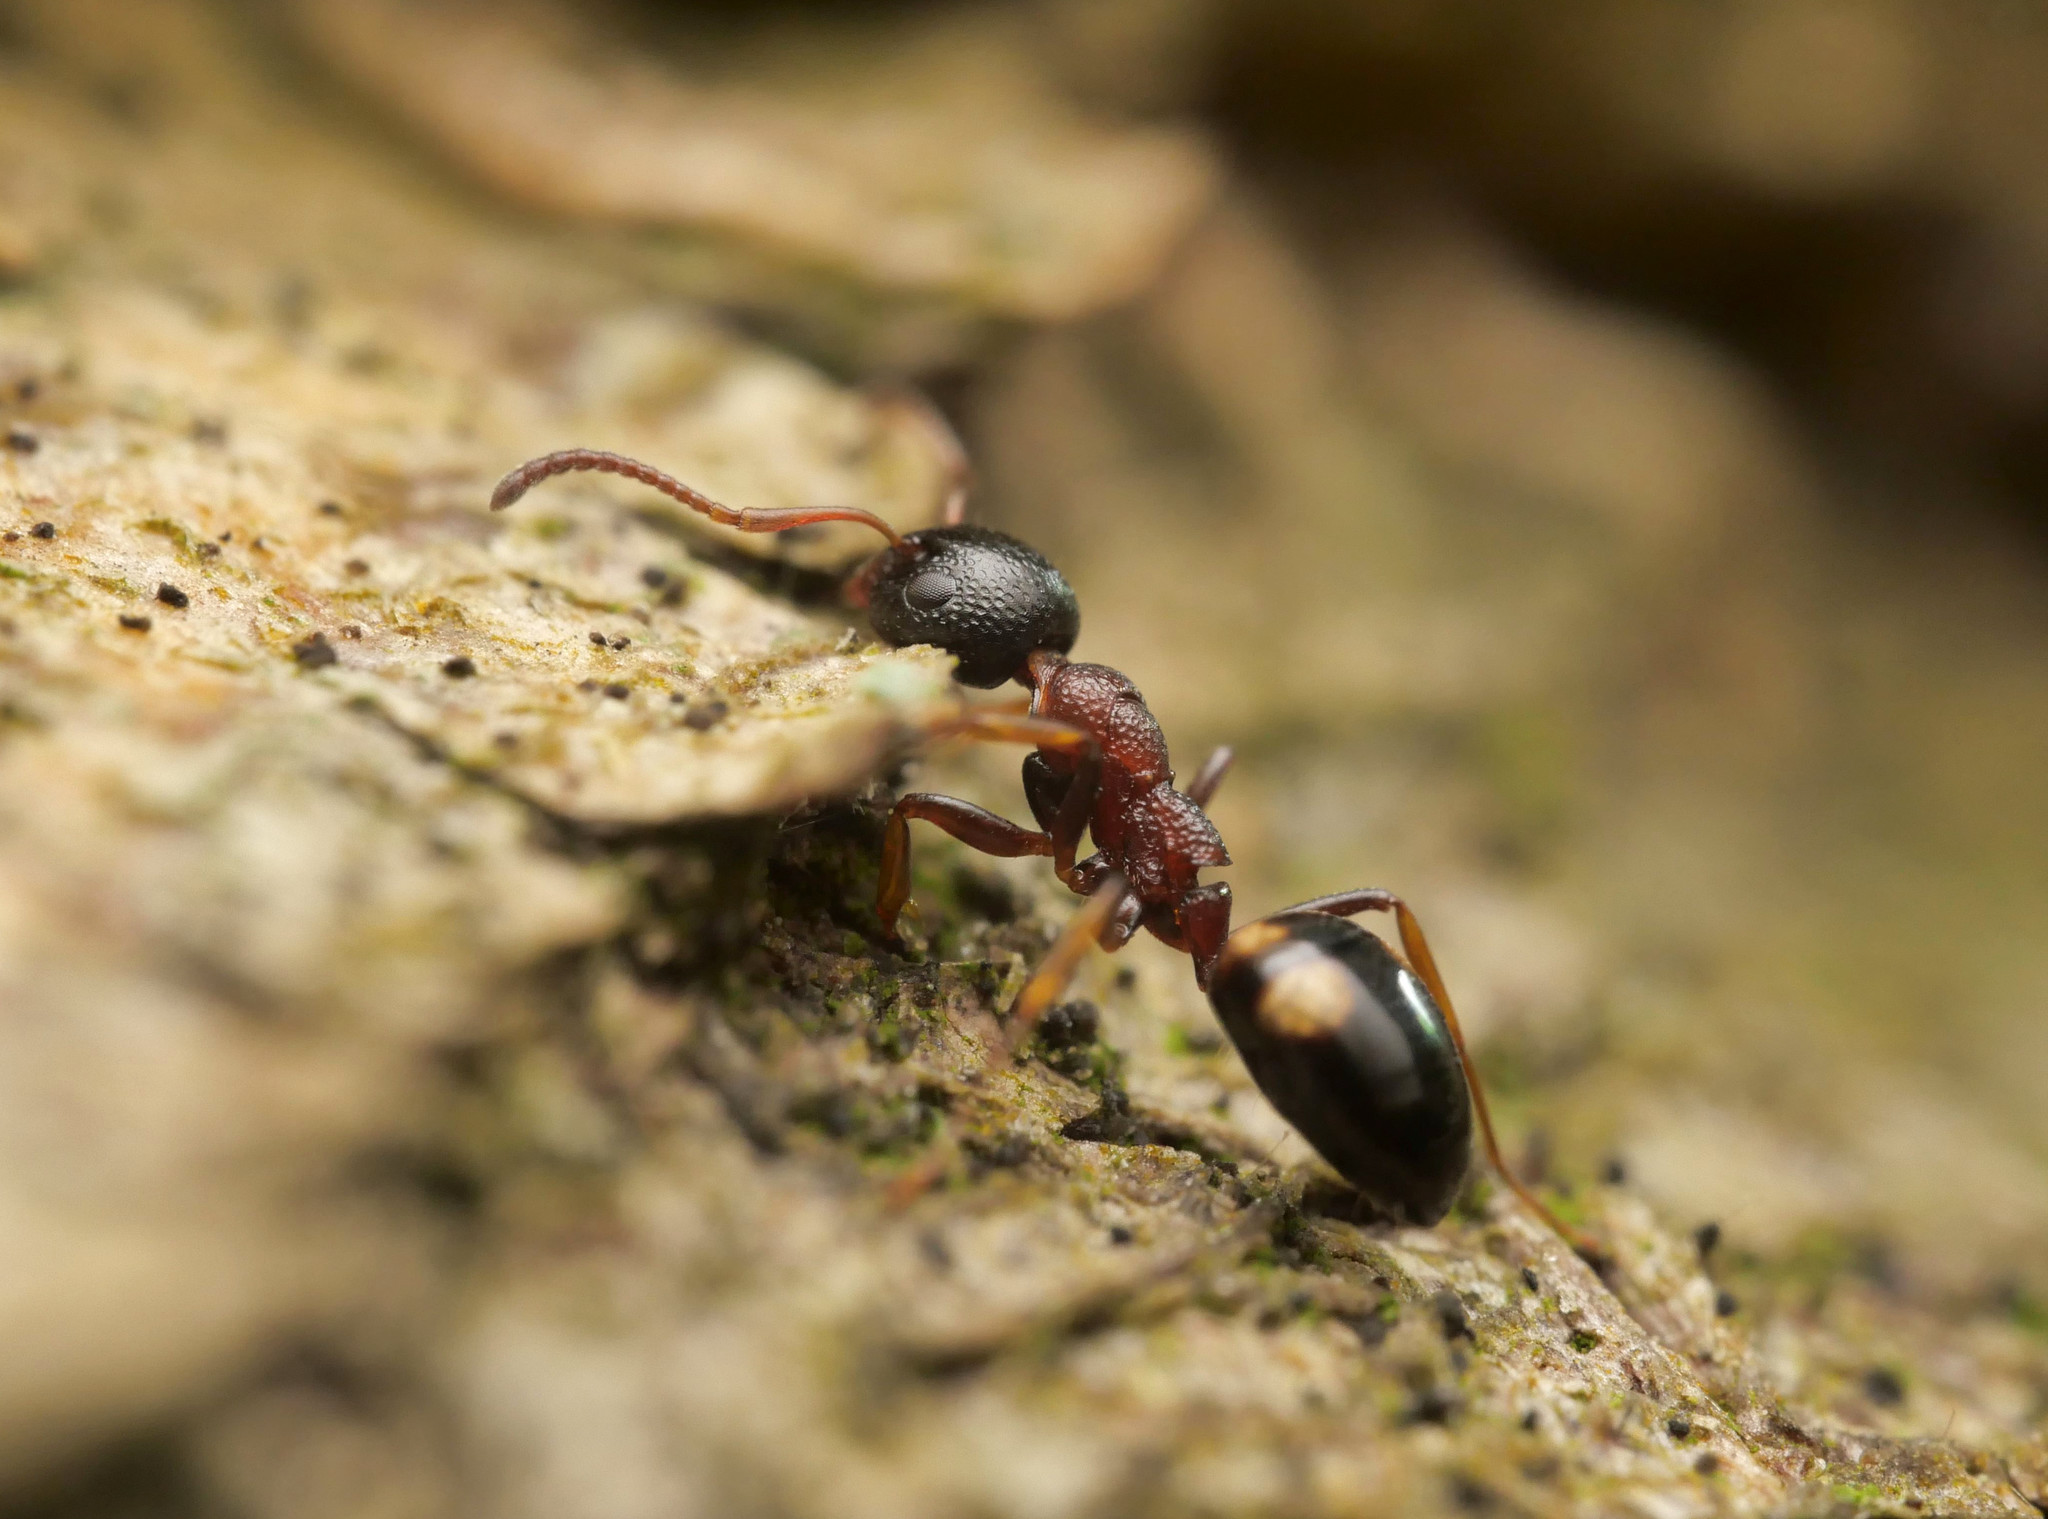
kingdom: Animalia
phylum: Arthropoda
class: Insecta
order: Hymenoptera
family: Formicidae
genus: Dolichoderus
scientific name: Dolichoderus quadripunctatus
